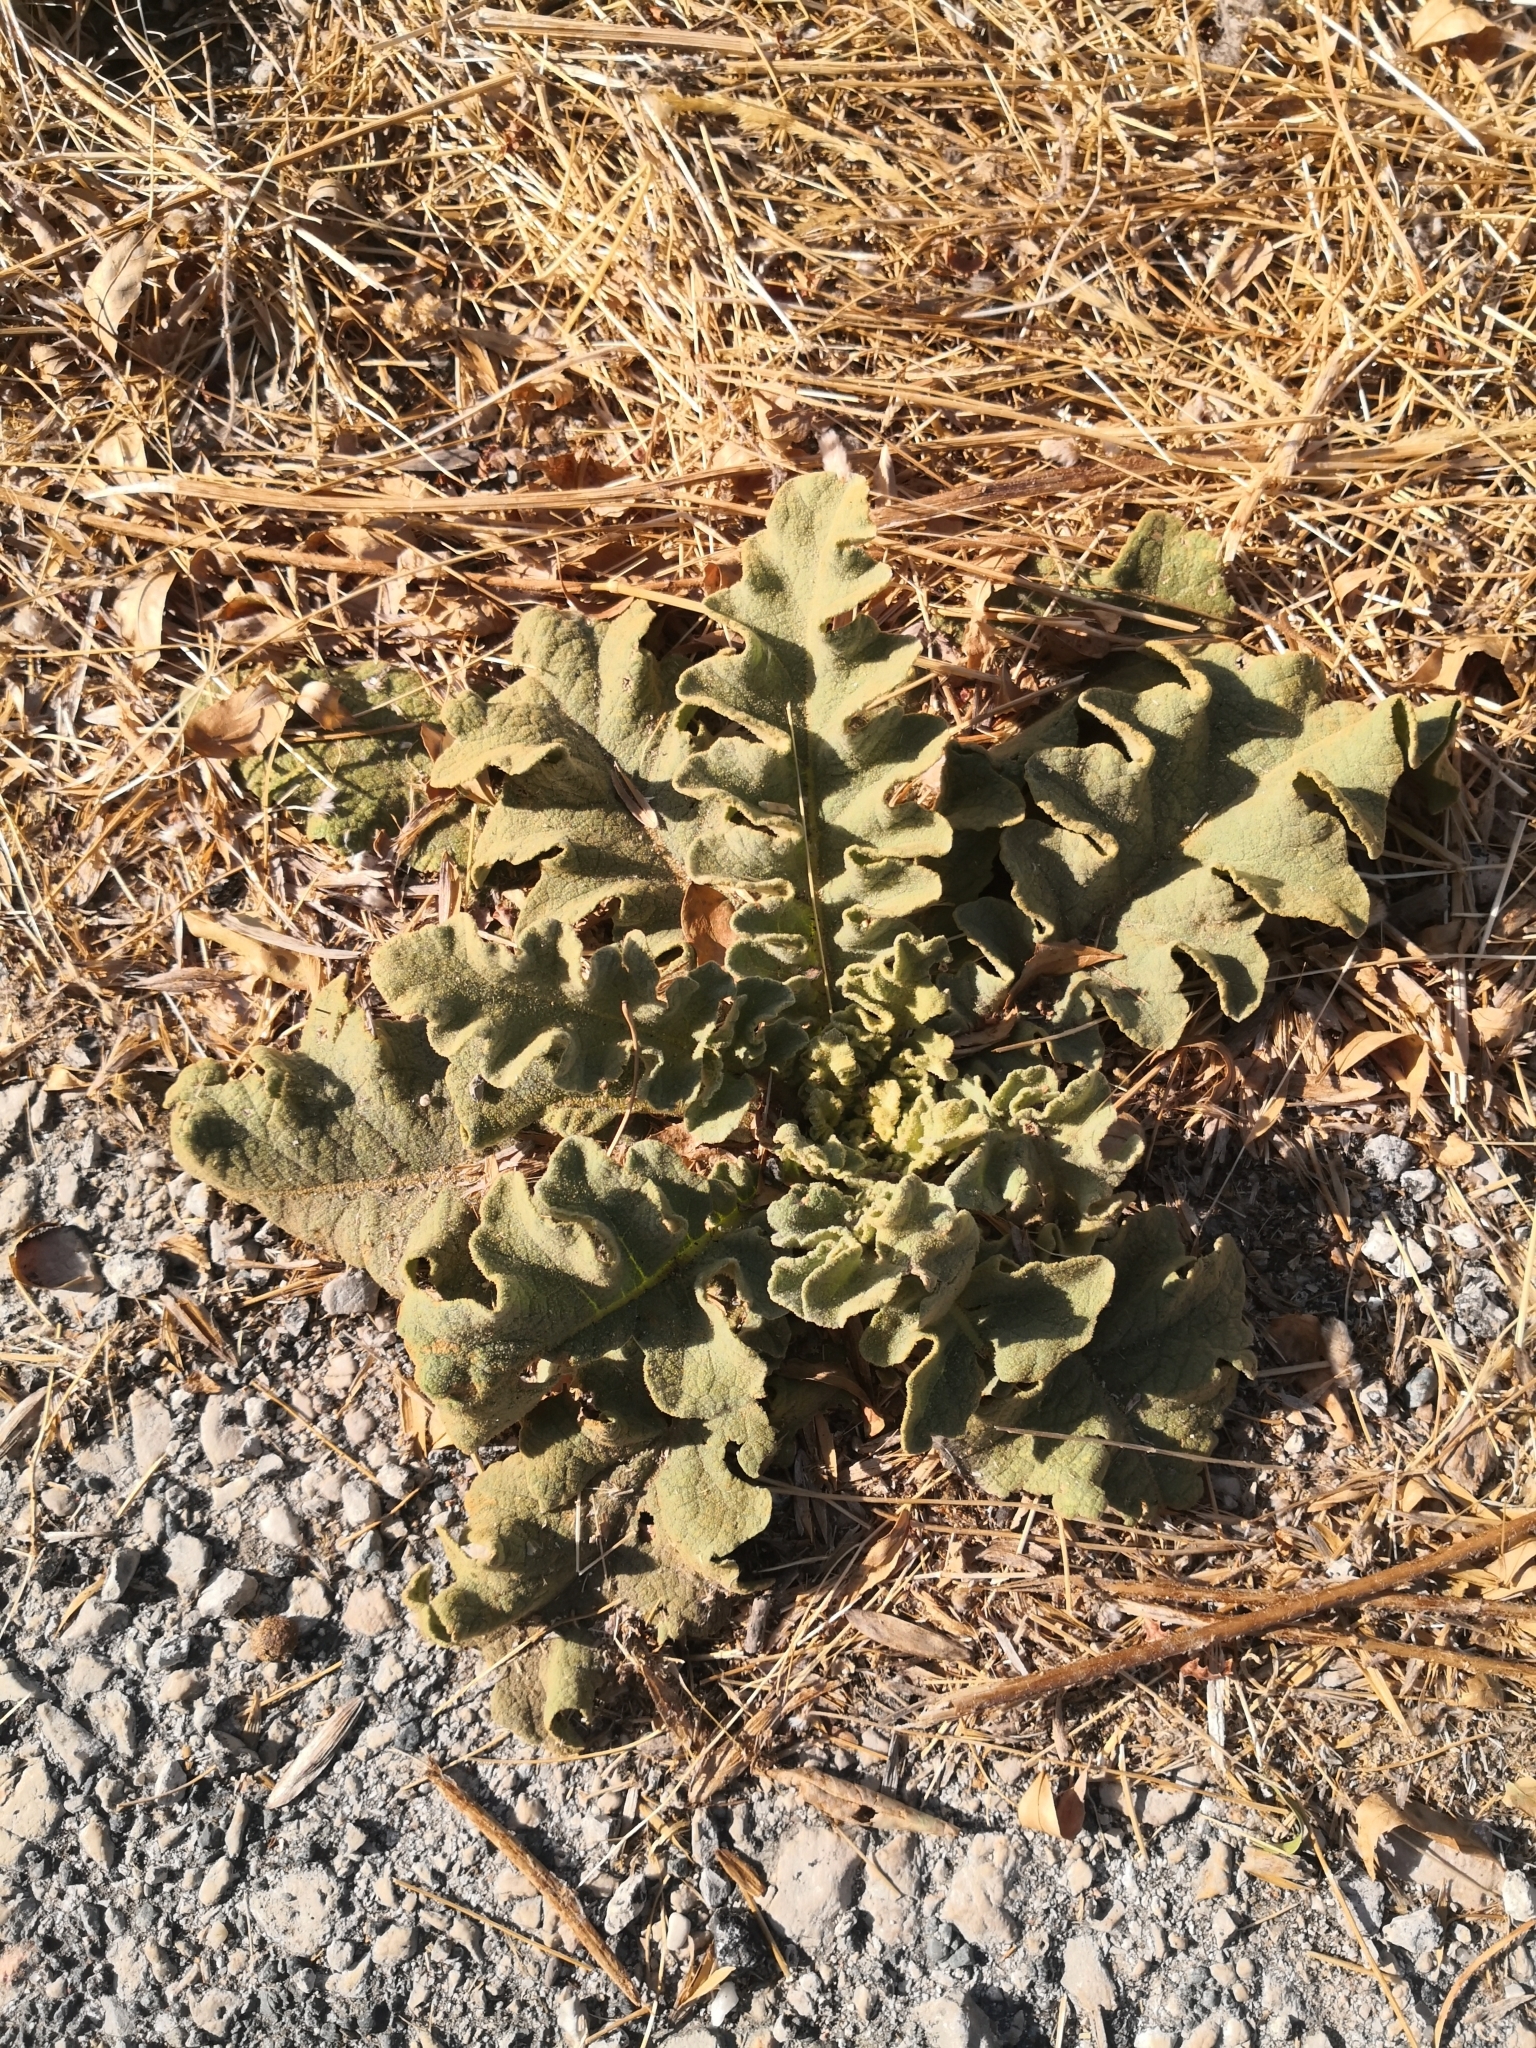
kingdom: Plantae
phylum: Tracheophyta
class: Magnoliopsida
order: Lamiales
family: Scrophulariaceae
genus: Verbascum
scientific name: Verbascum sinuatum
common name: Wavyleaf mullein
